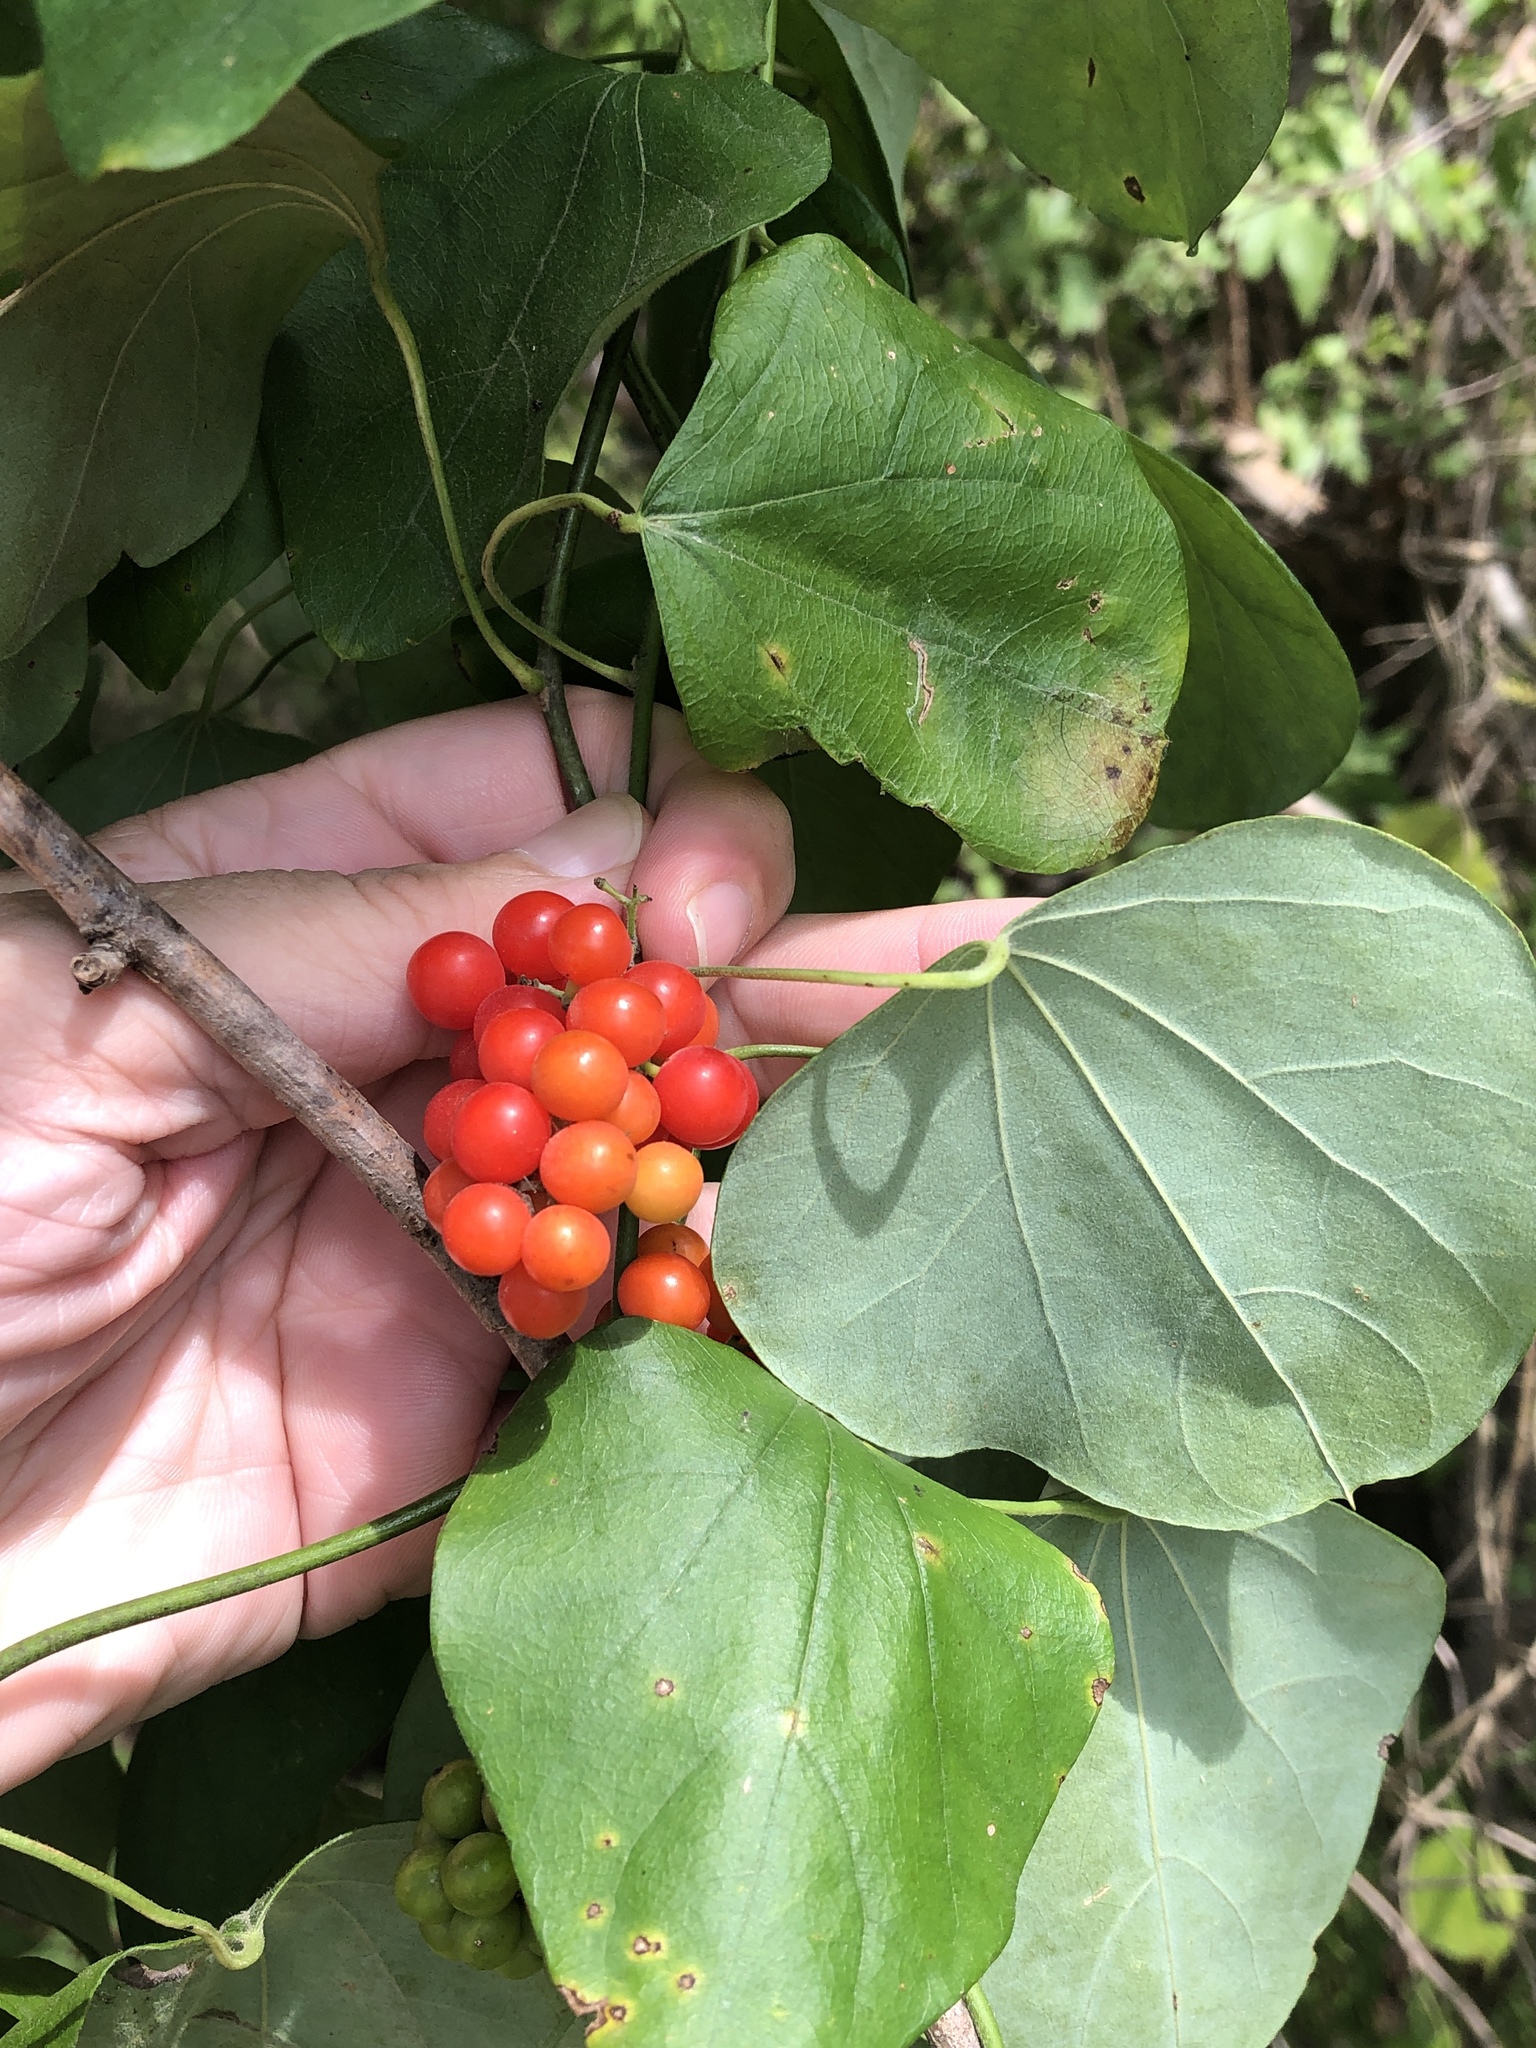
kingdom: Plantae
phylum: Tracheophyta
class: Magnoliopsida
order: Ranunculales
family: Menispermaceae
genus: Cocculus
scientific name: Cocculus carolinus
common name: Carolina moonseed
